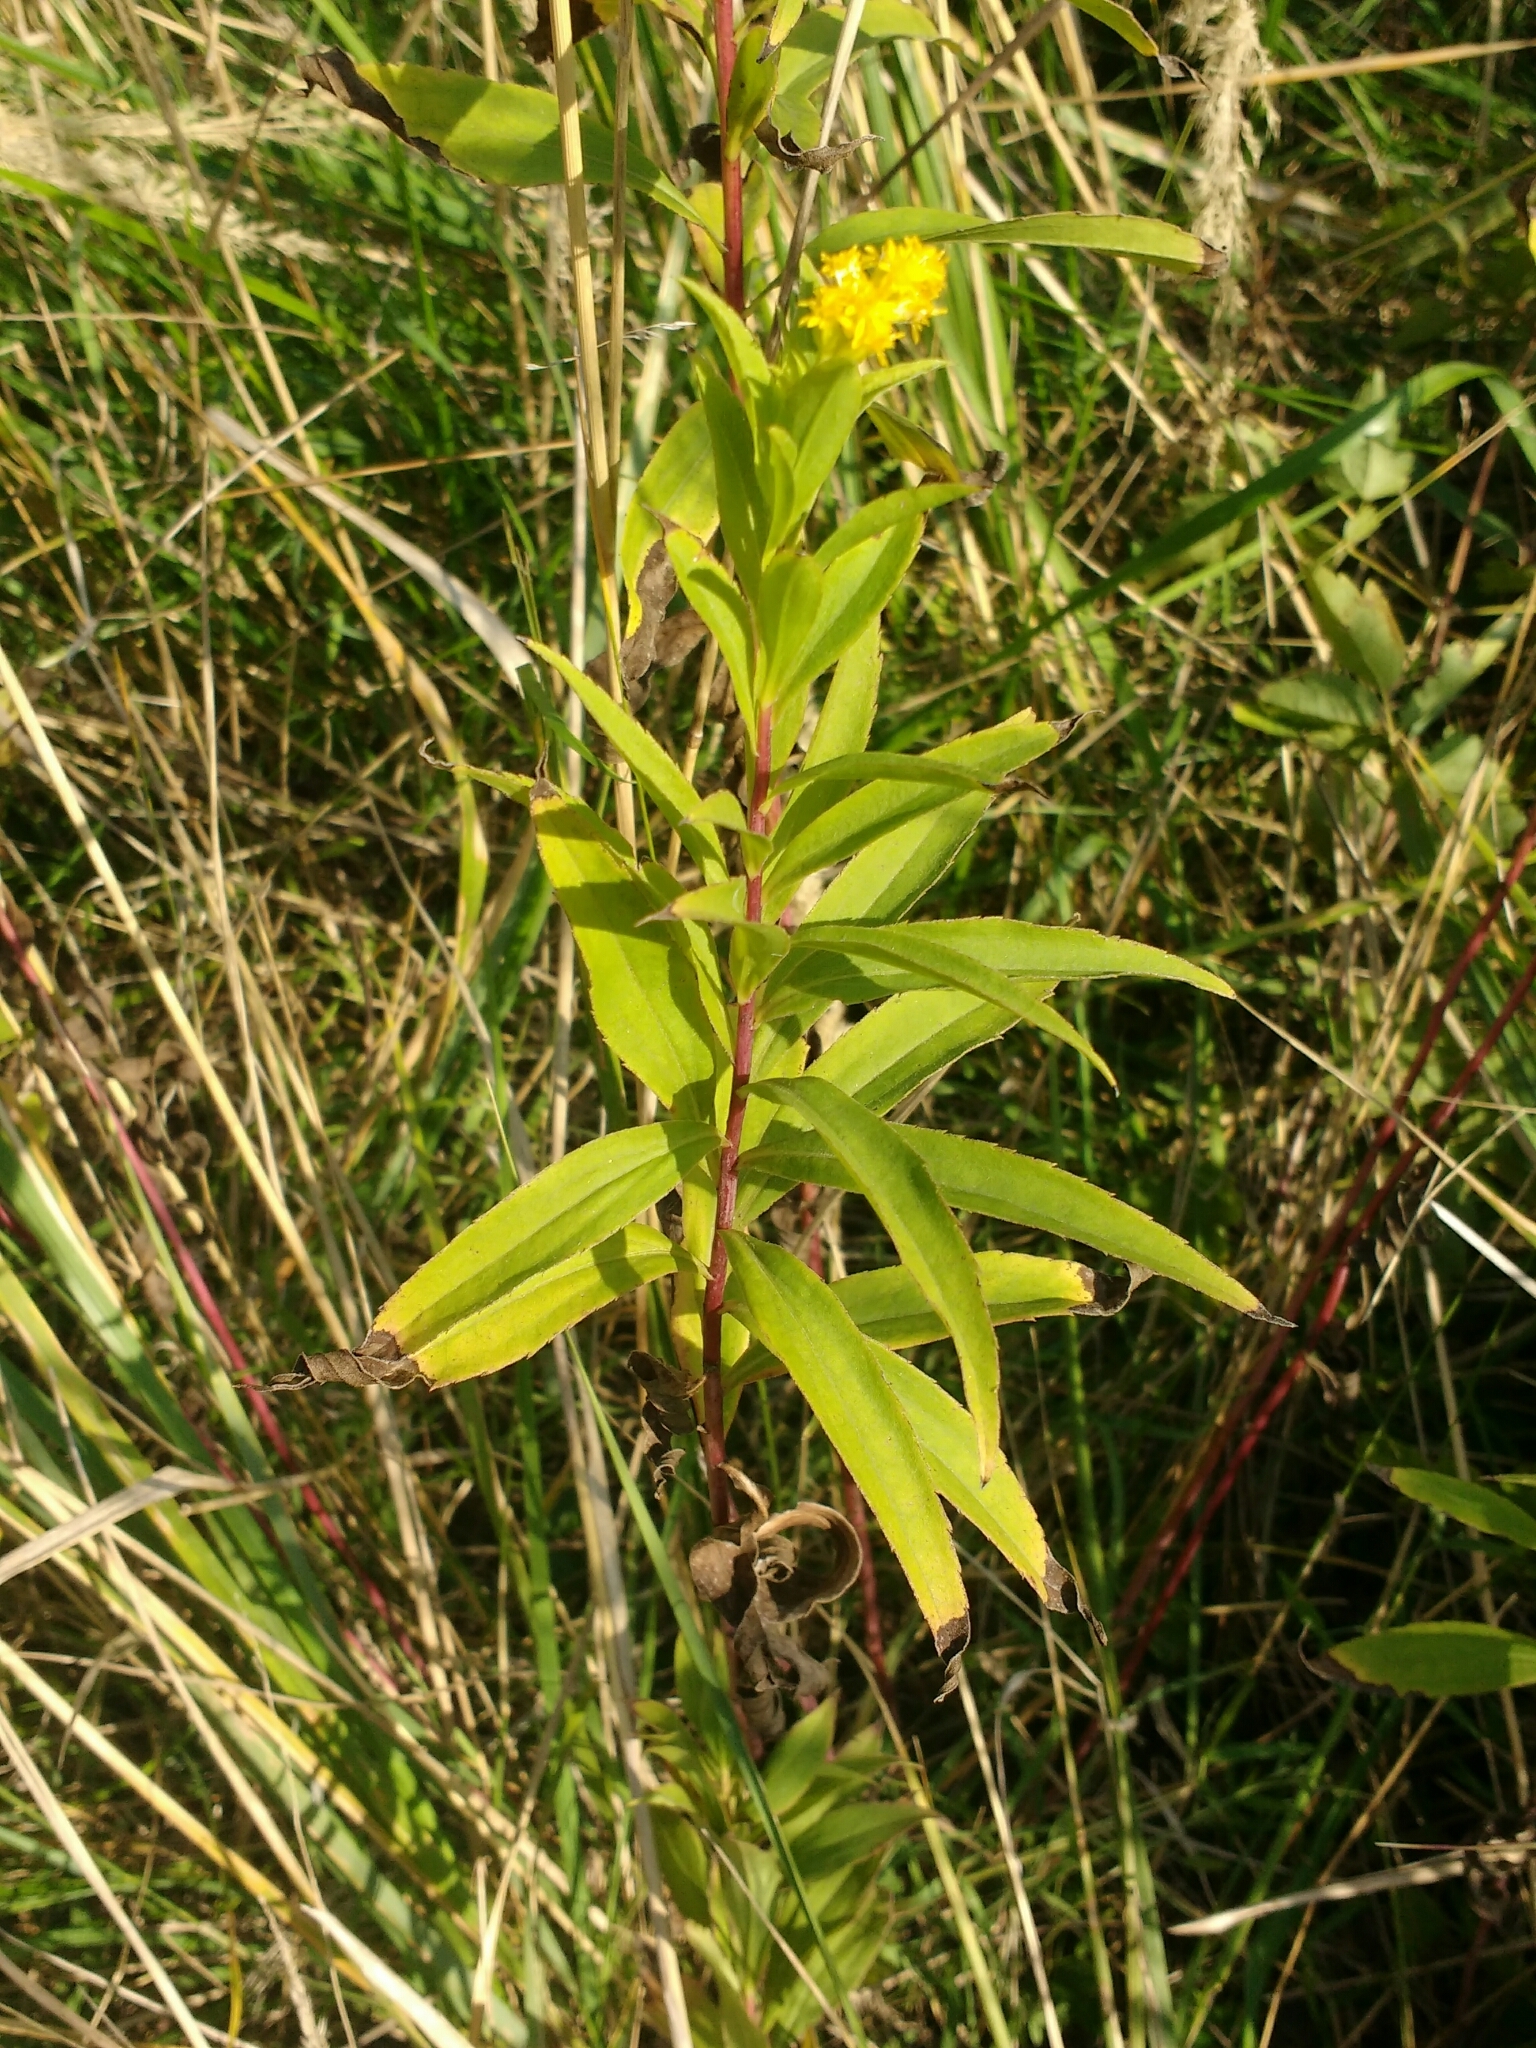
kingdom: Plantae
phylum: Tracheophyta
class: Magnoliopsida
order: Asterales
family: Asteraceae
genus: Solidago
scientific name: Solidago gigantea
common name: Giant goldenrod
